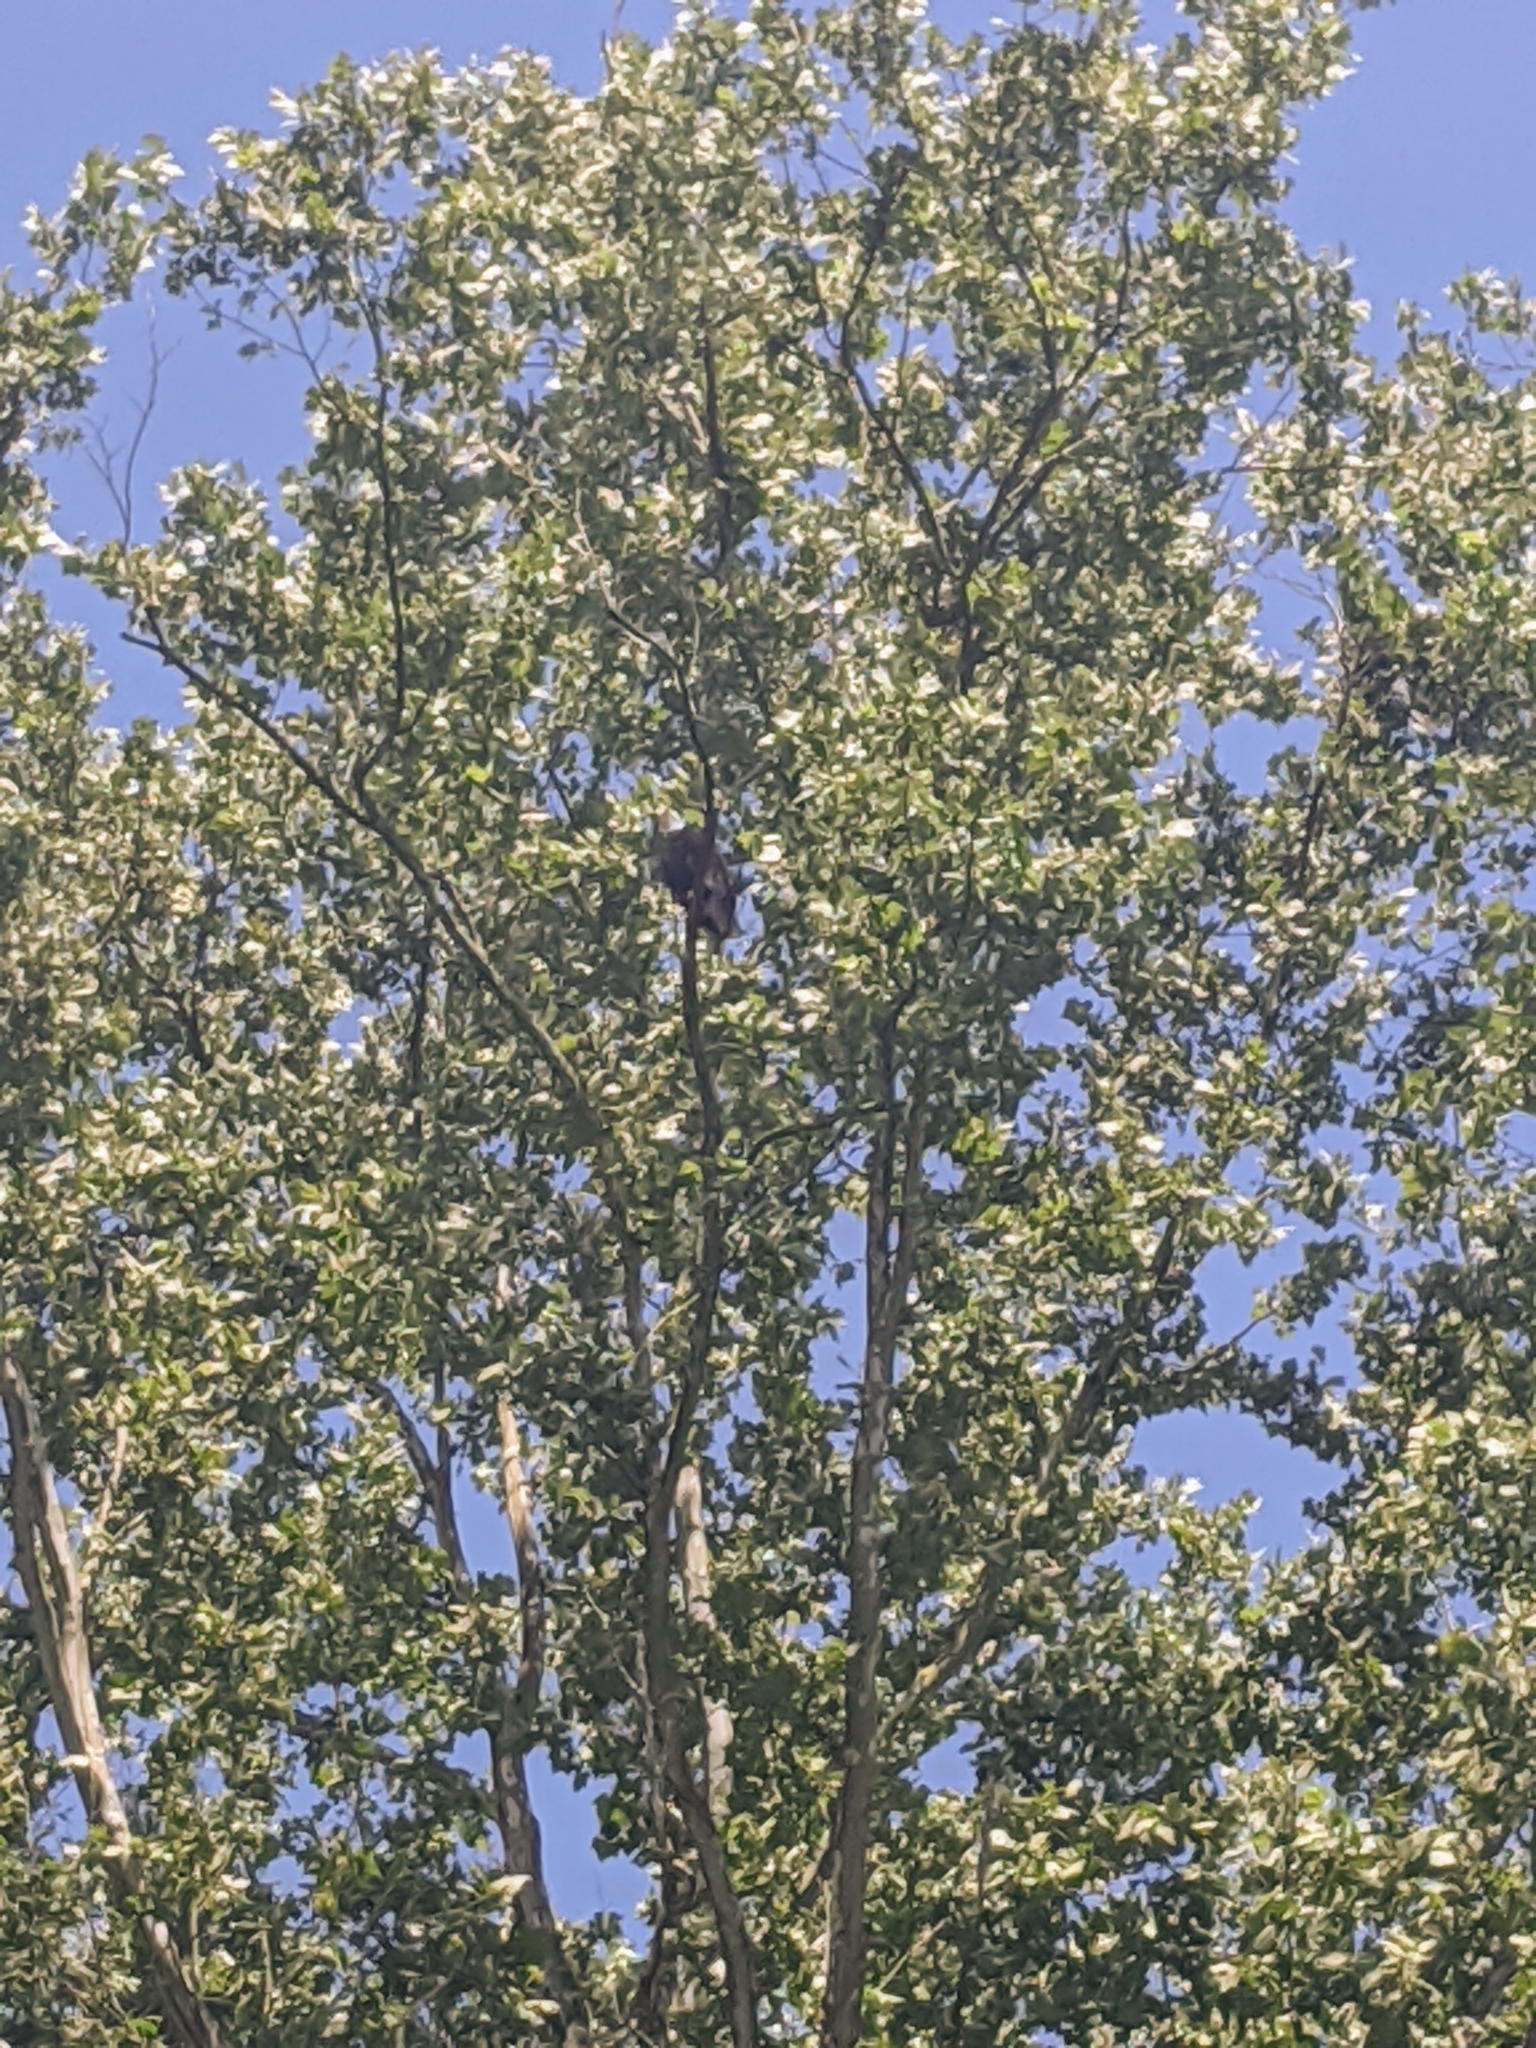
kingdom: Animalia
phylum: Chordata
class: Aves
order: Accipitriformes
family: Accipitridae
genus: Haliaeetus
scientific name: Haliaeetus leucocephalus
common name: Bald eagle
